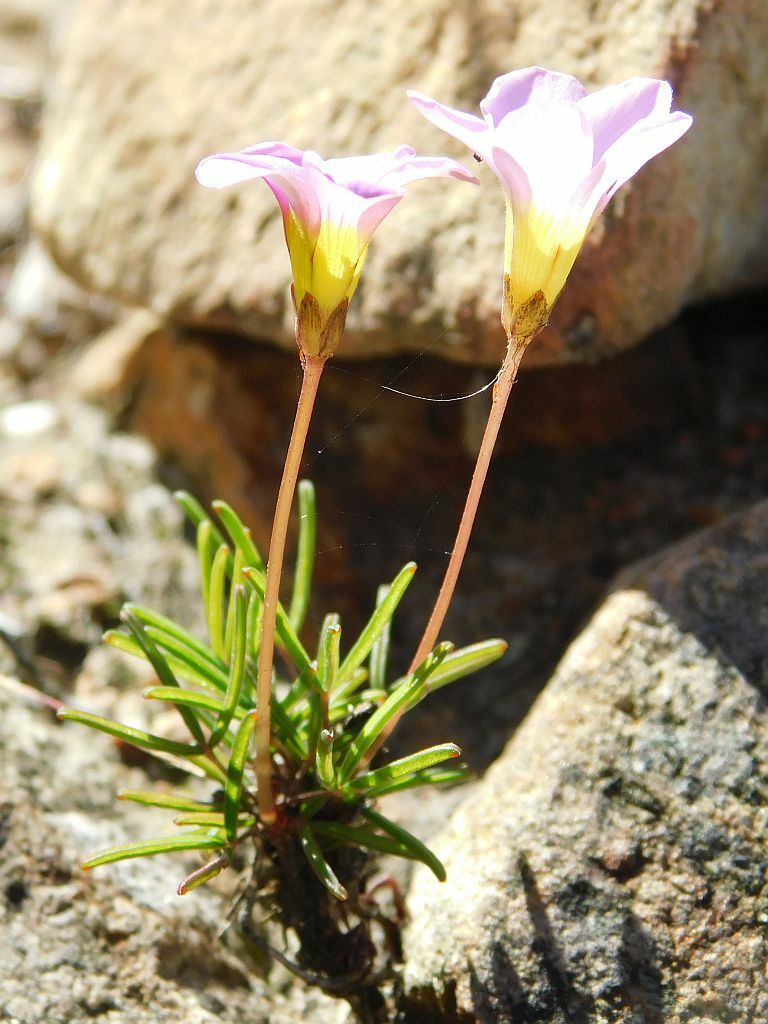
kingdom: Plantae
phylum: Tracheophyta
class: Magnoliopsida
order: Oxalidales
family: Oxalidaceae
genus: Oxalis
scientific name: Oxalis polyphylla
